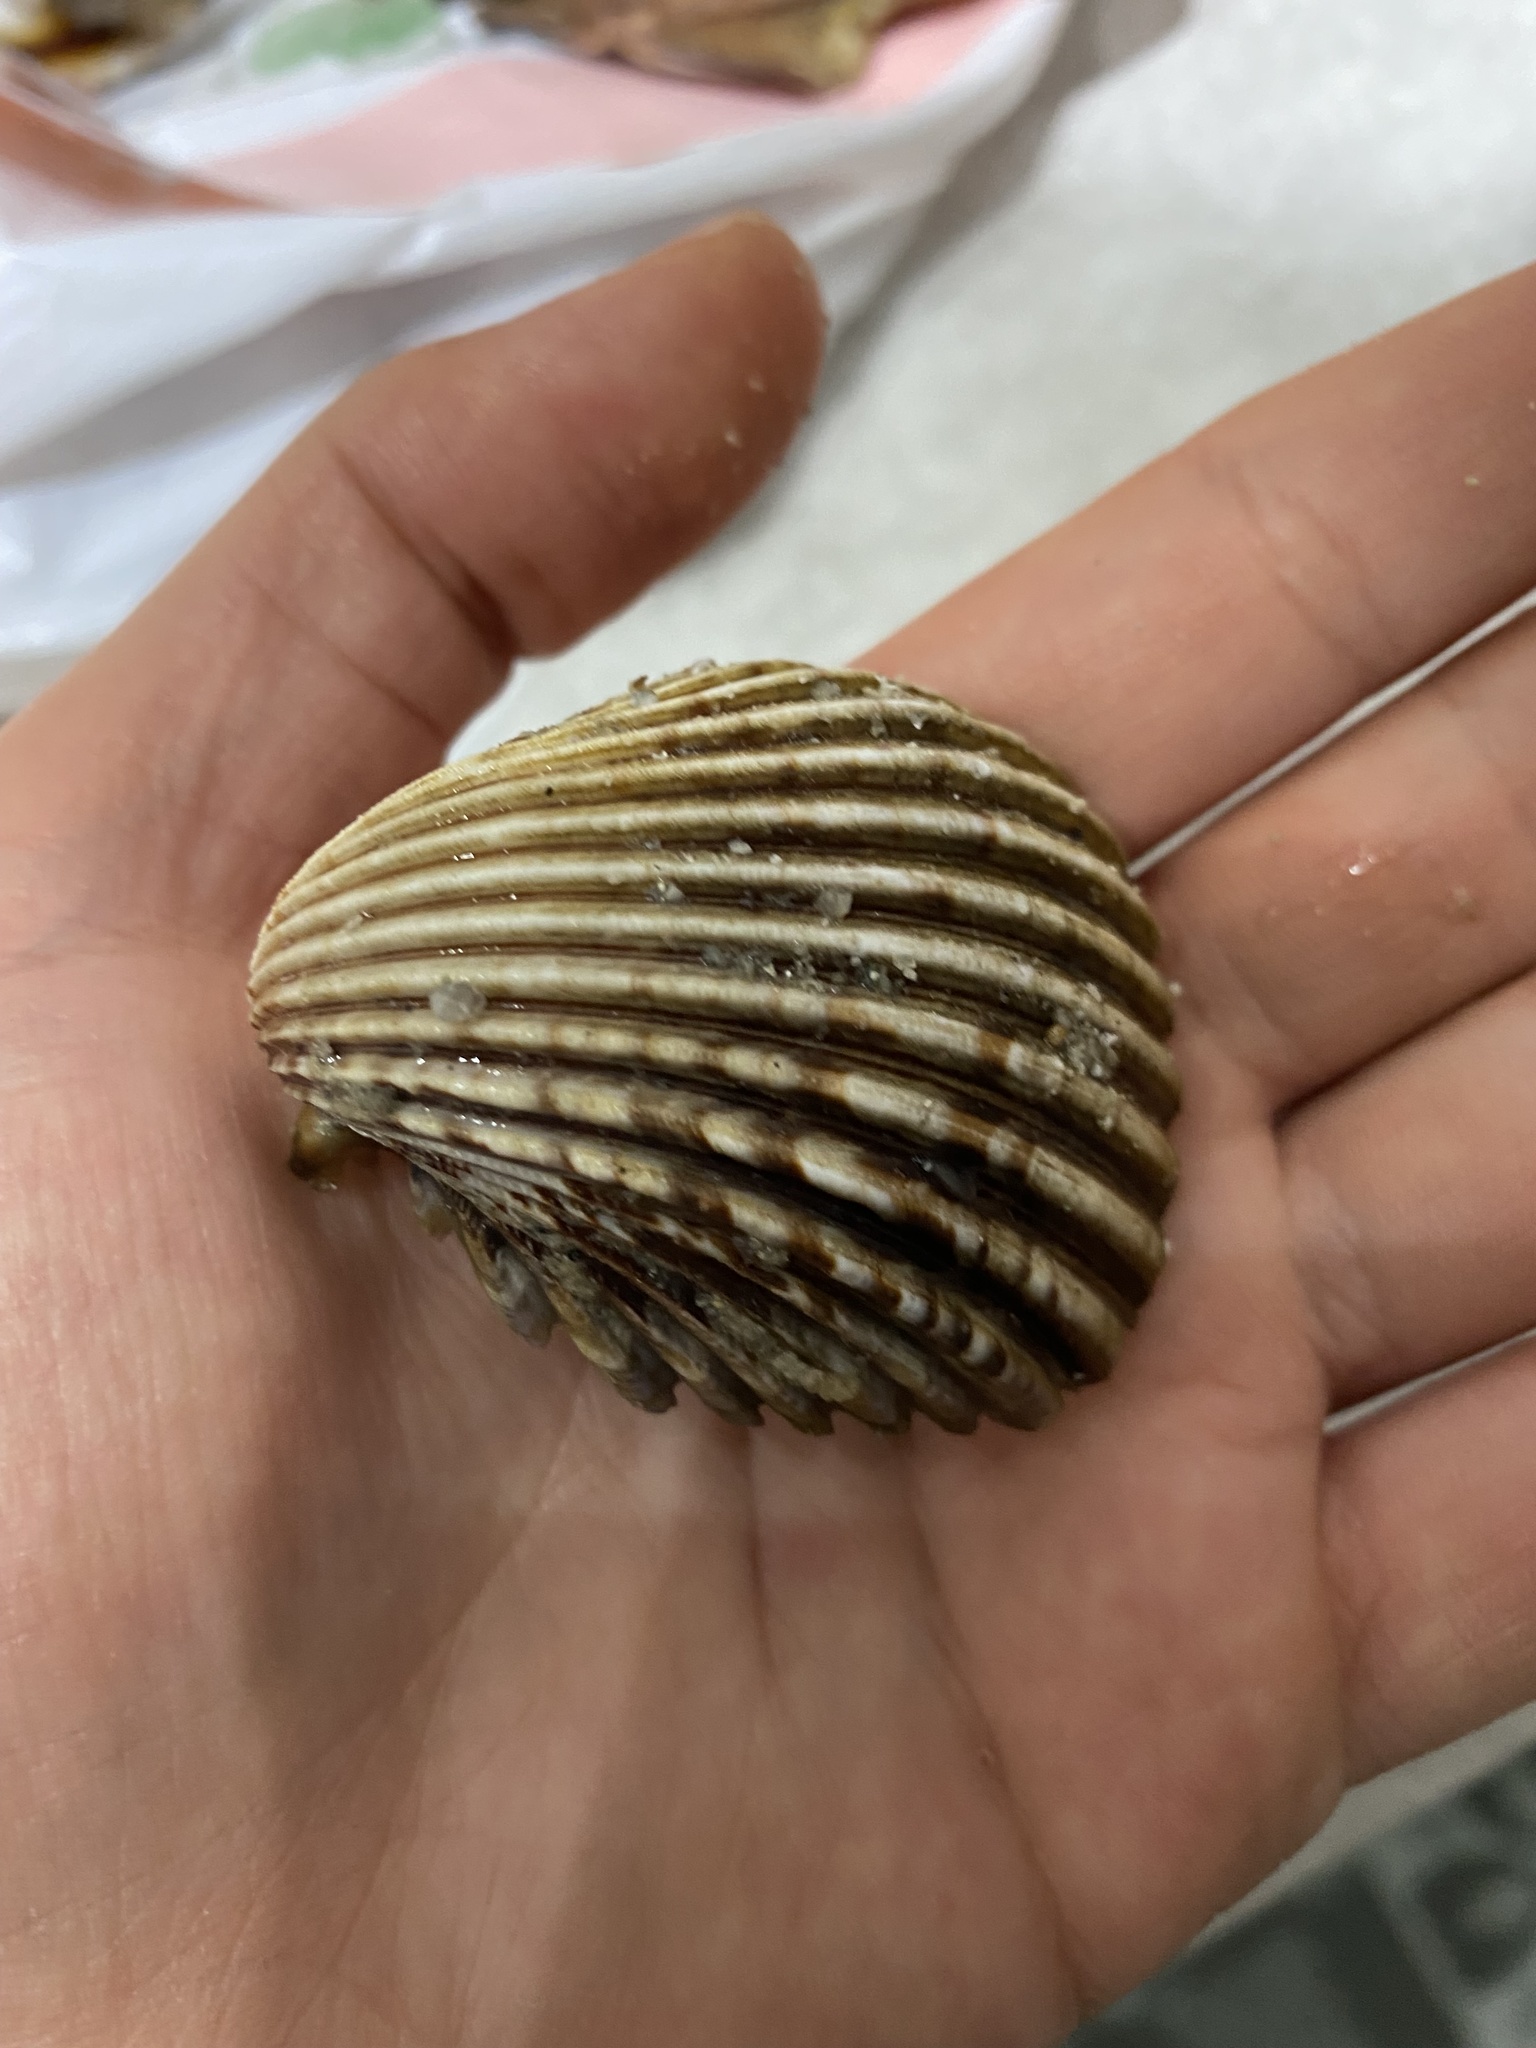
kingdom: Animalia
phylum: Mollusca
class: Bivalvia
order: Cardiida
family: Cardiidae
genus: Trachycardium
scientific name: Trachycardium procerum
